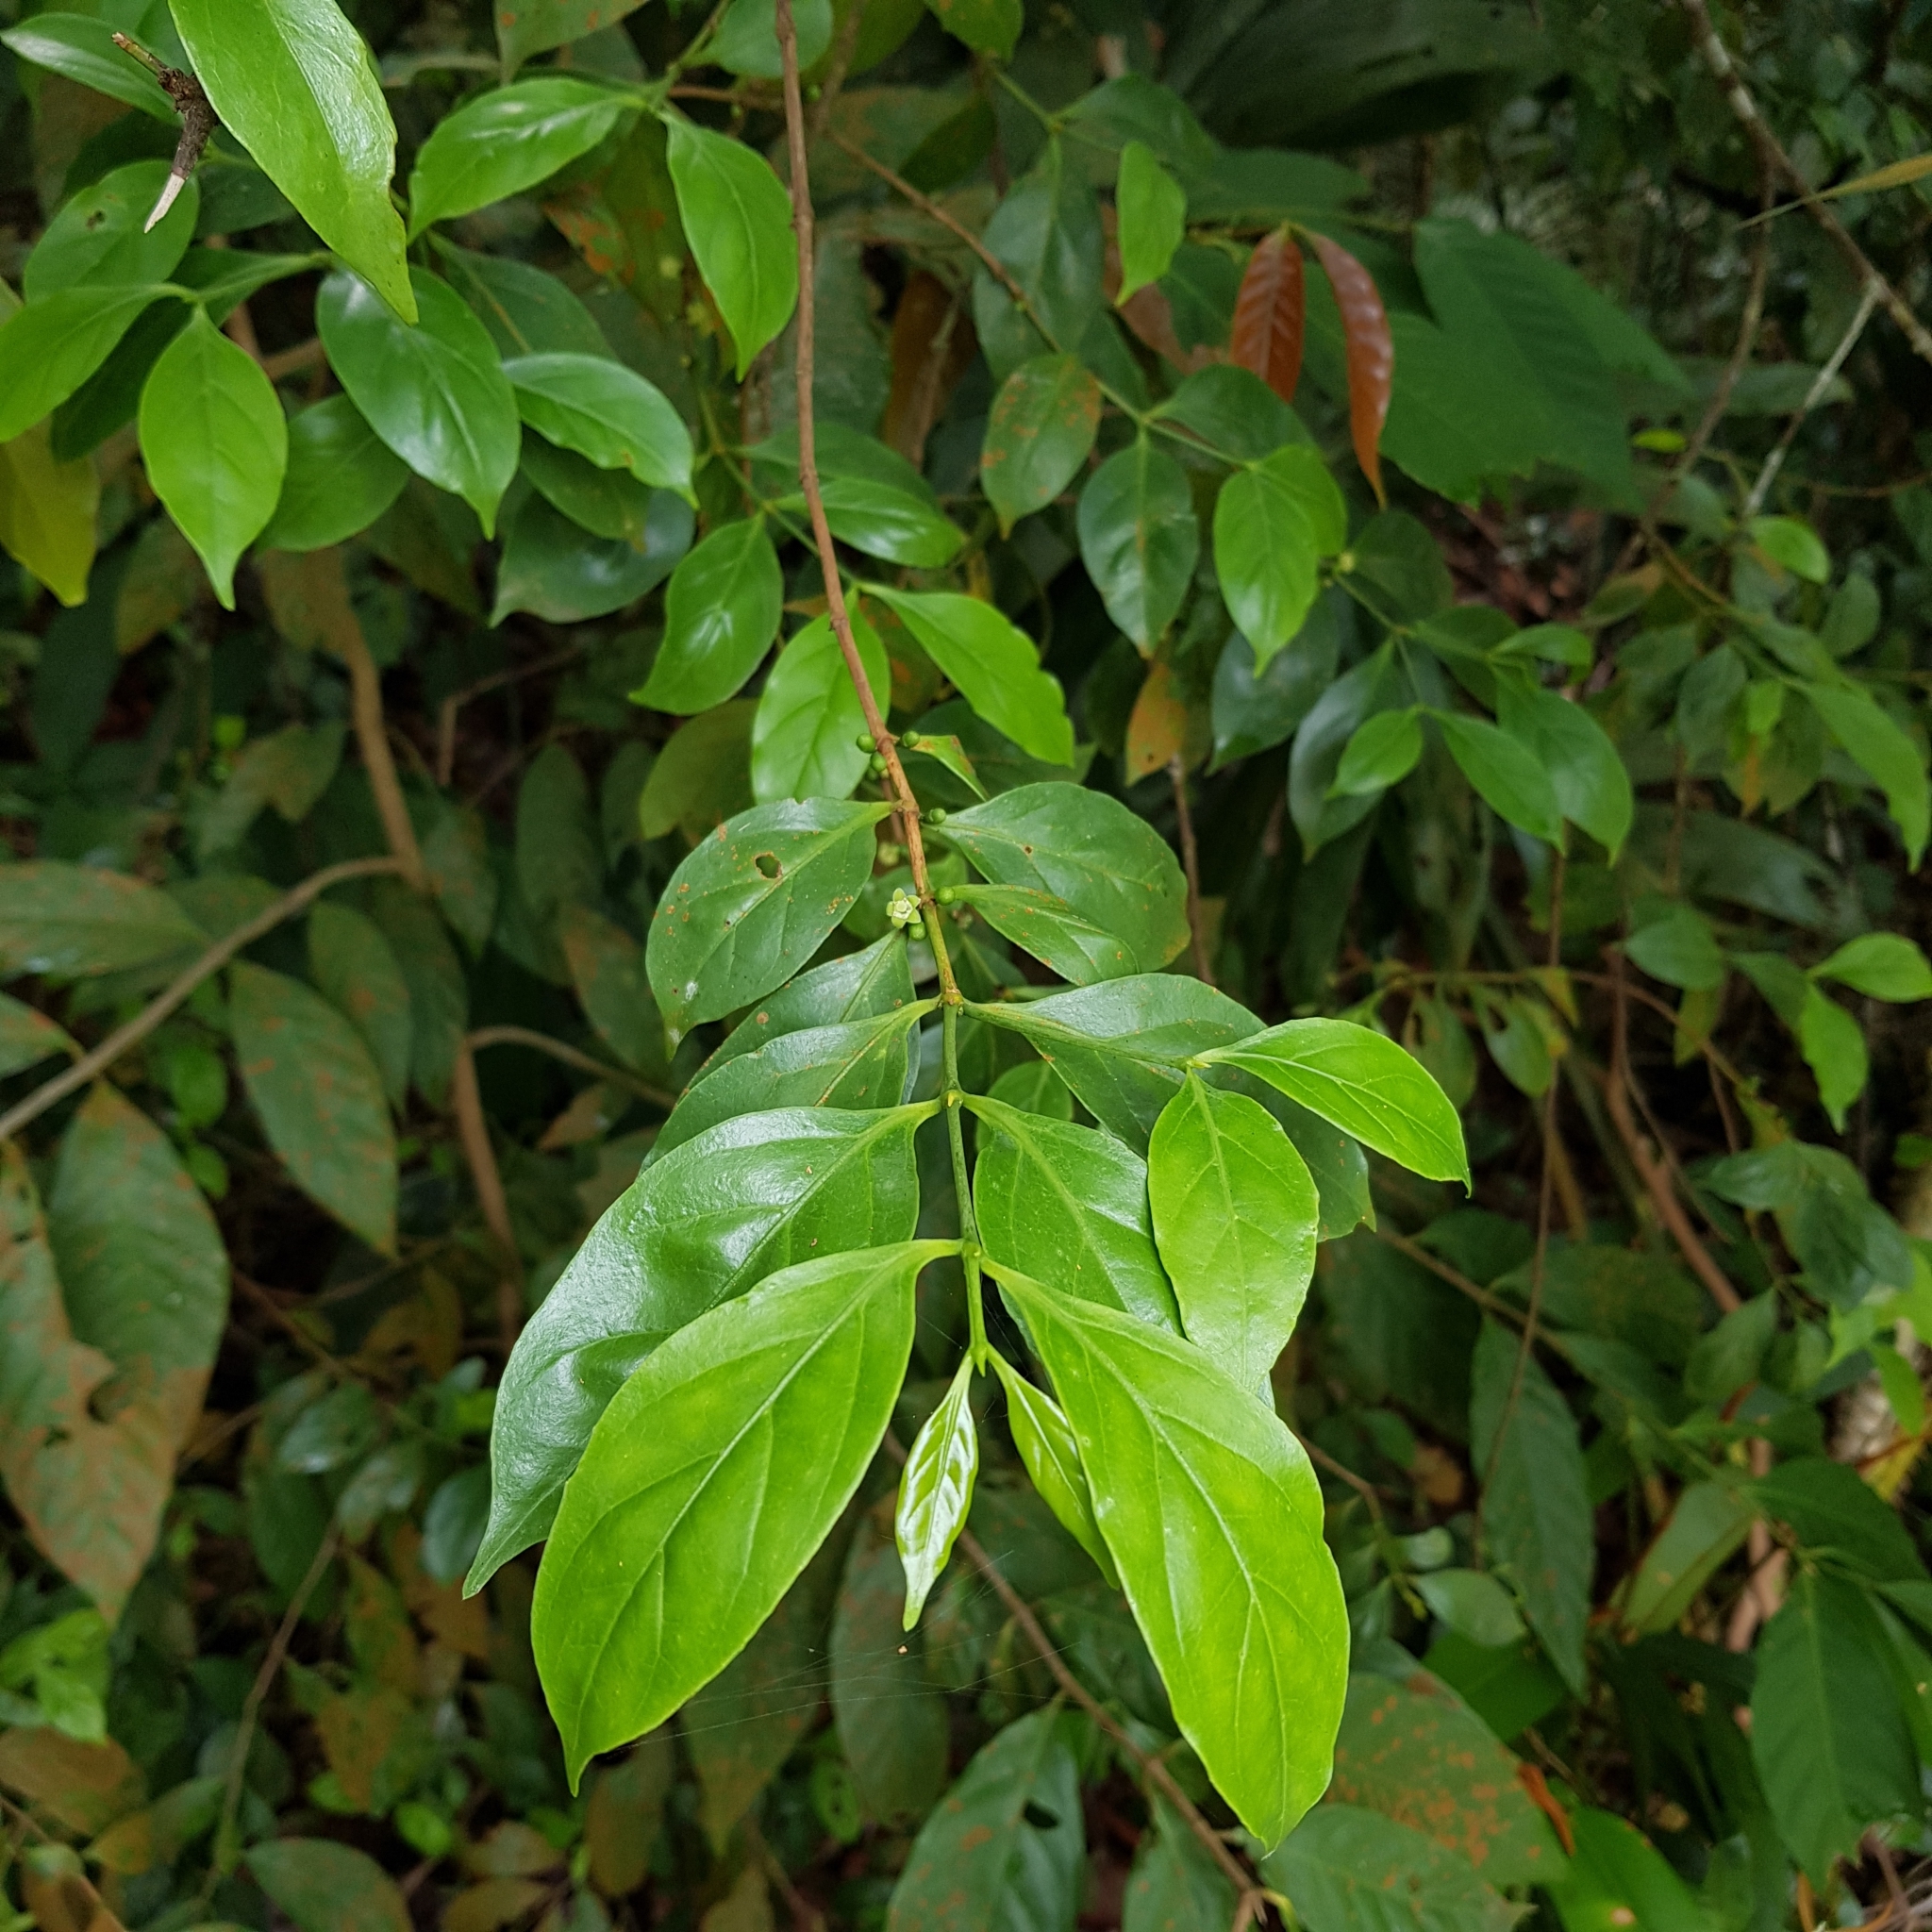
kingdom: Plantae
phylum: Tracheophyta
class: Magnoliopsida
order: Gentianales
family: Rubiaceae
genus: Dibridsonia
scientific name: Dibridsonia conferta
